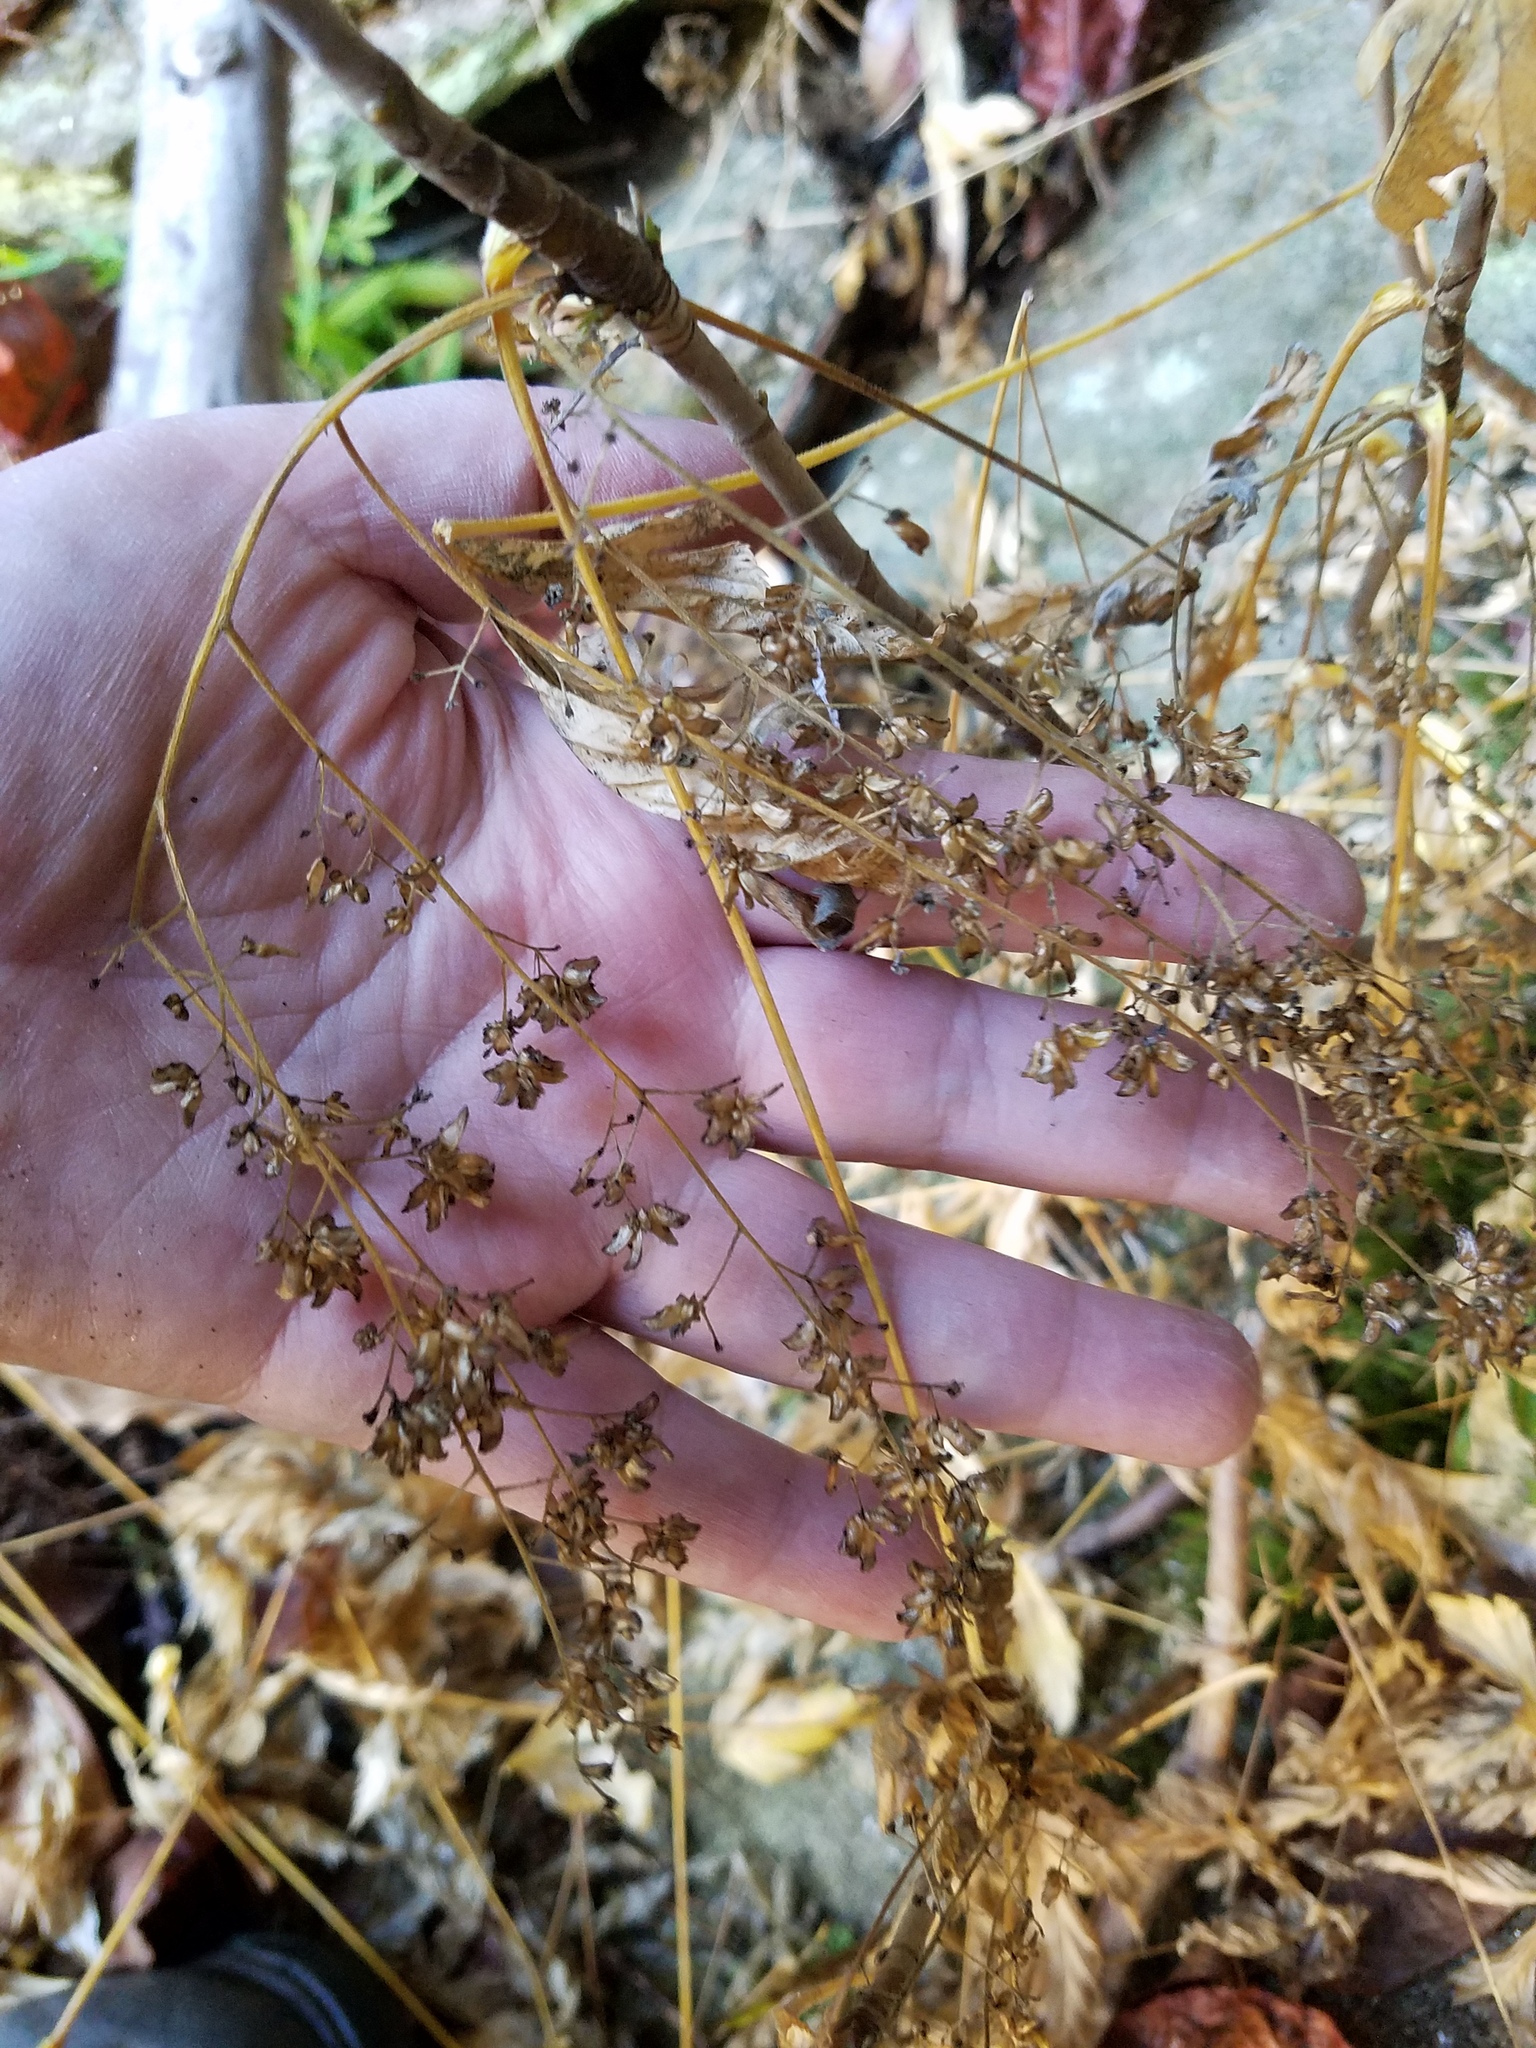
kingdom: Plantae
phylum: Tracheophyta
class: Magnoliopsida
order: Ranunculales
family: Ranunculaceae
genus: Xanthorhiza
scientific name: Xanthorhiza simplicissima
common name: Yellowroot
